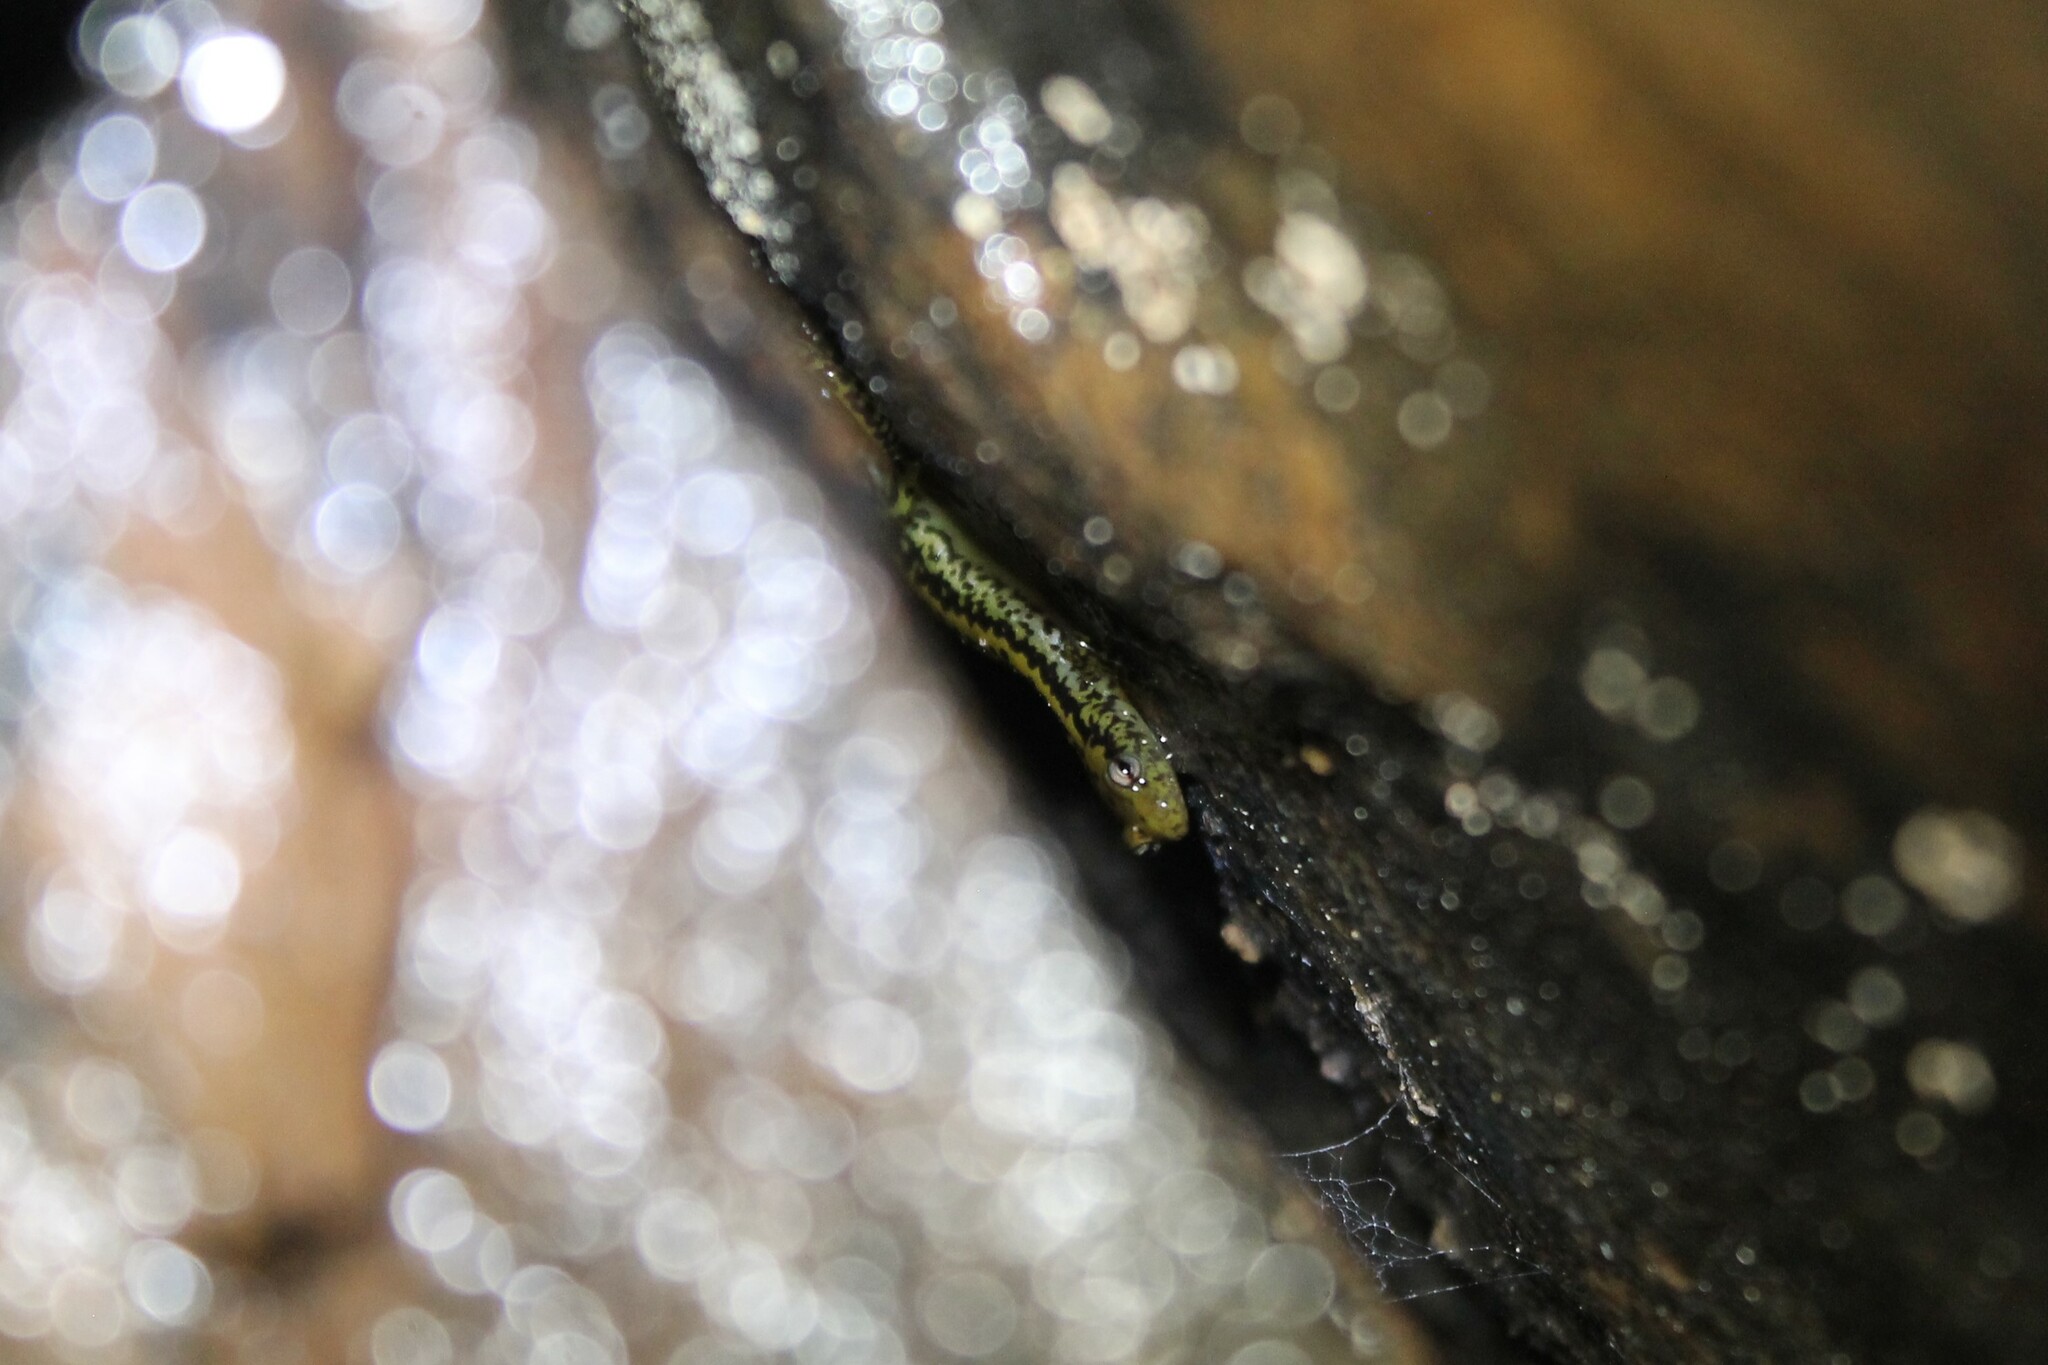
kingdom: Animalia
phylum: Chordata
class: Amphibia
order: Caudata
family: Plethodontidae
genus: Eurycea
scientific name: Eurycea longicauda
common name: Long-tailed salamander
